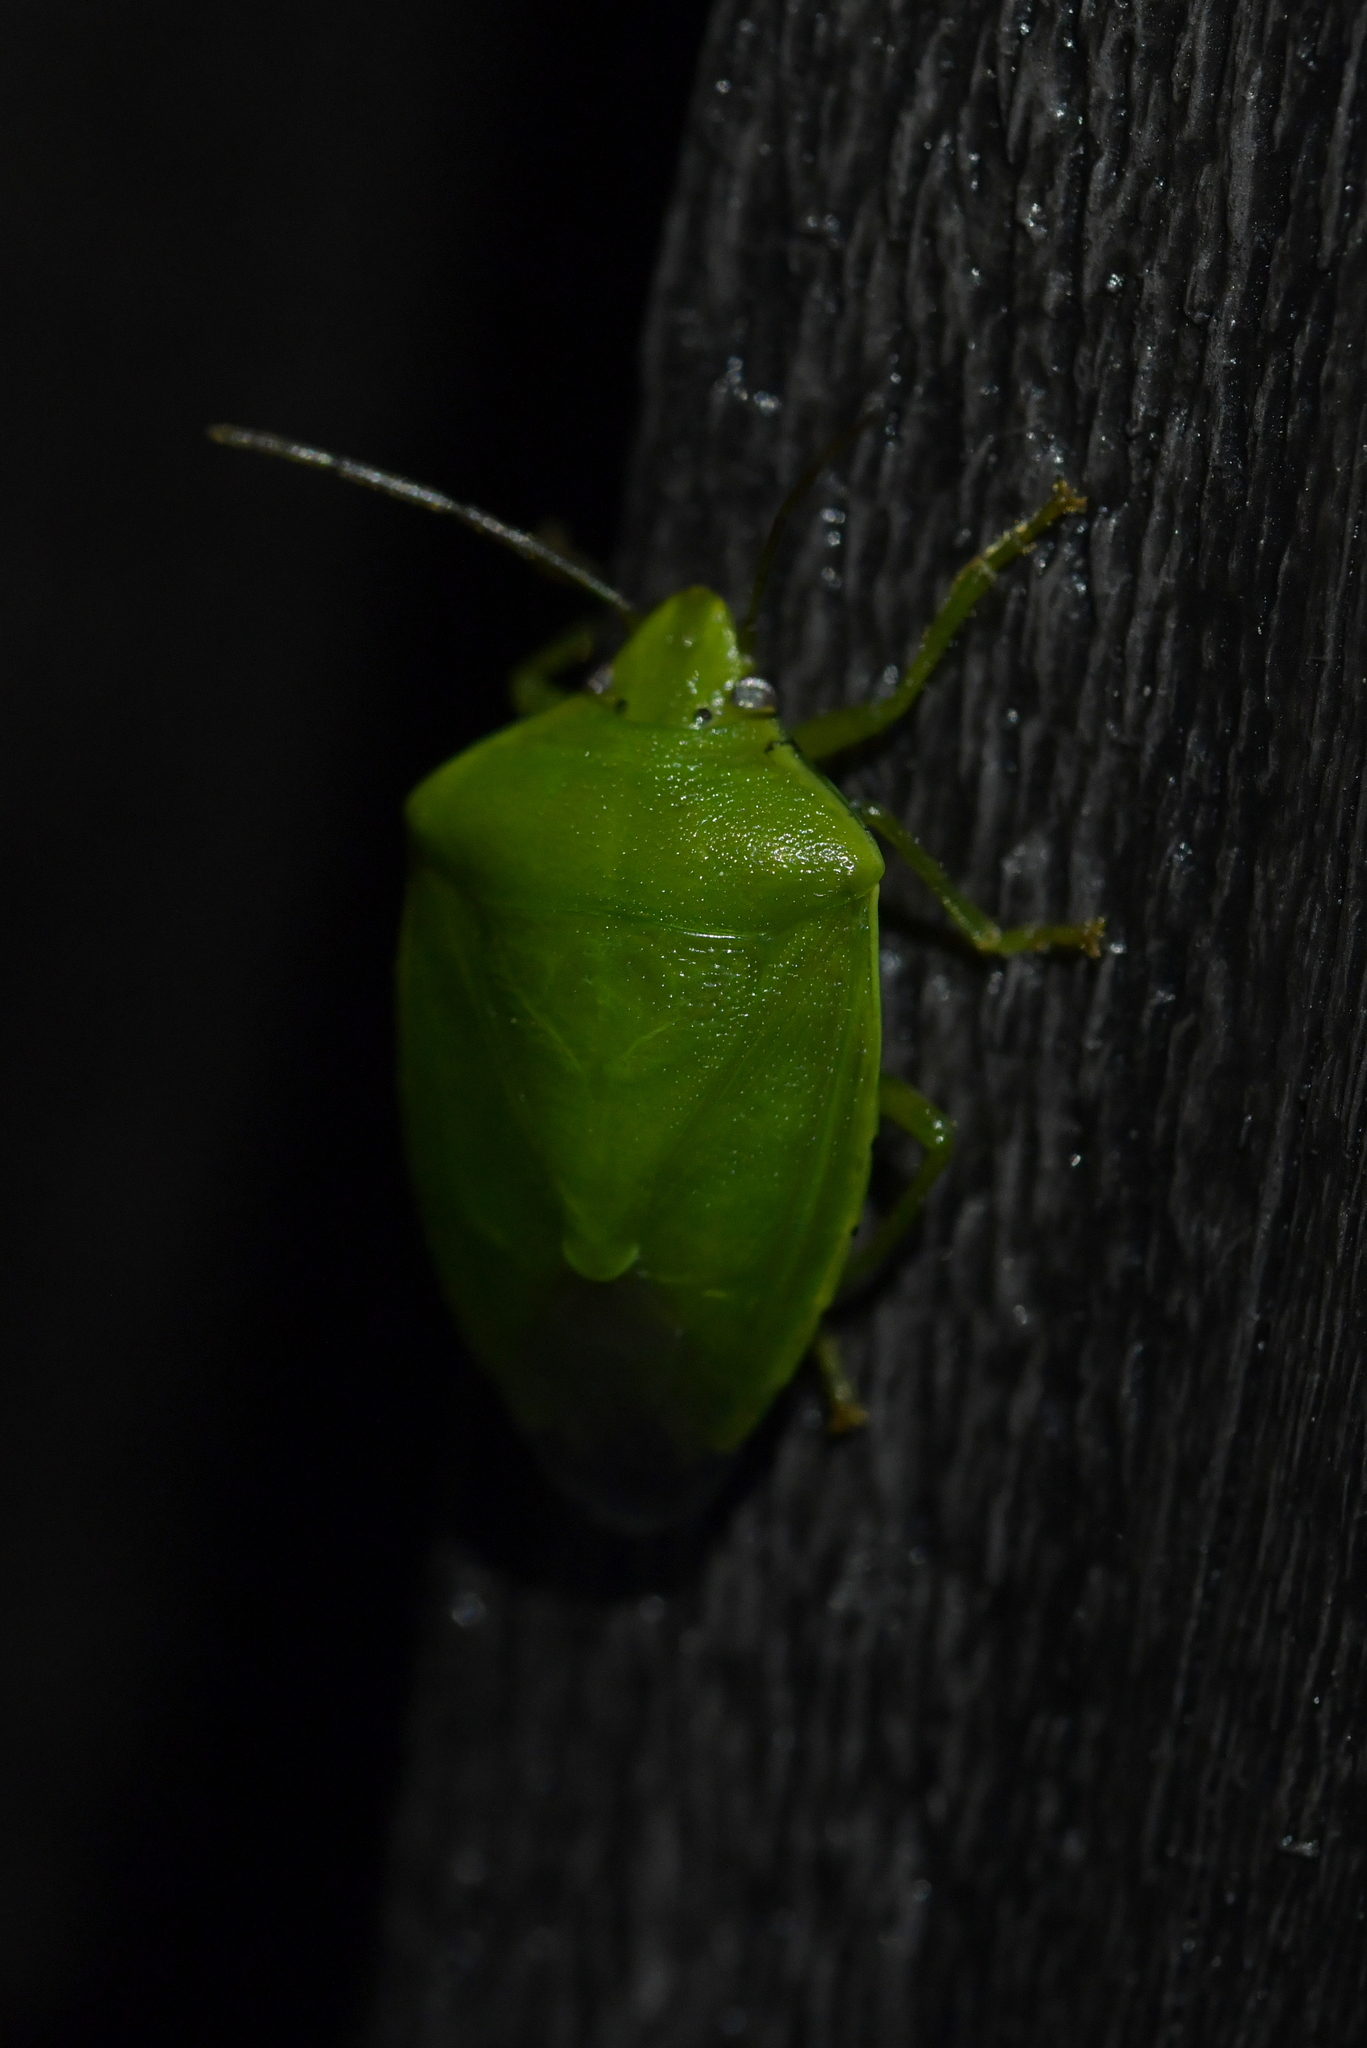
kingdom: Animalia
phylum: Arthropoda
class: Insecta
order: Hemiptera
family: Pentatomidae
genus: Glaucias
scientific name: Glaucias amyota
